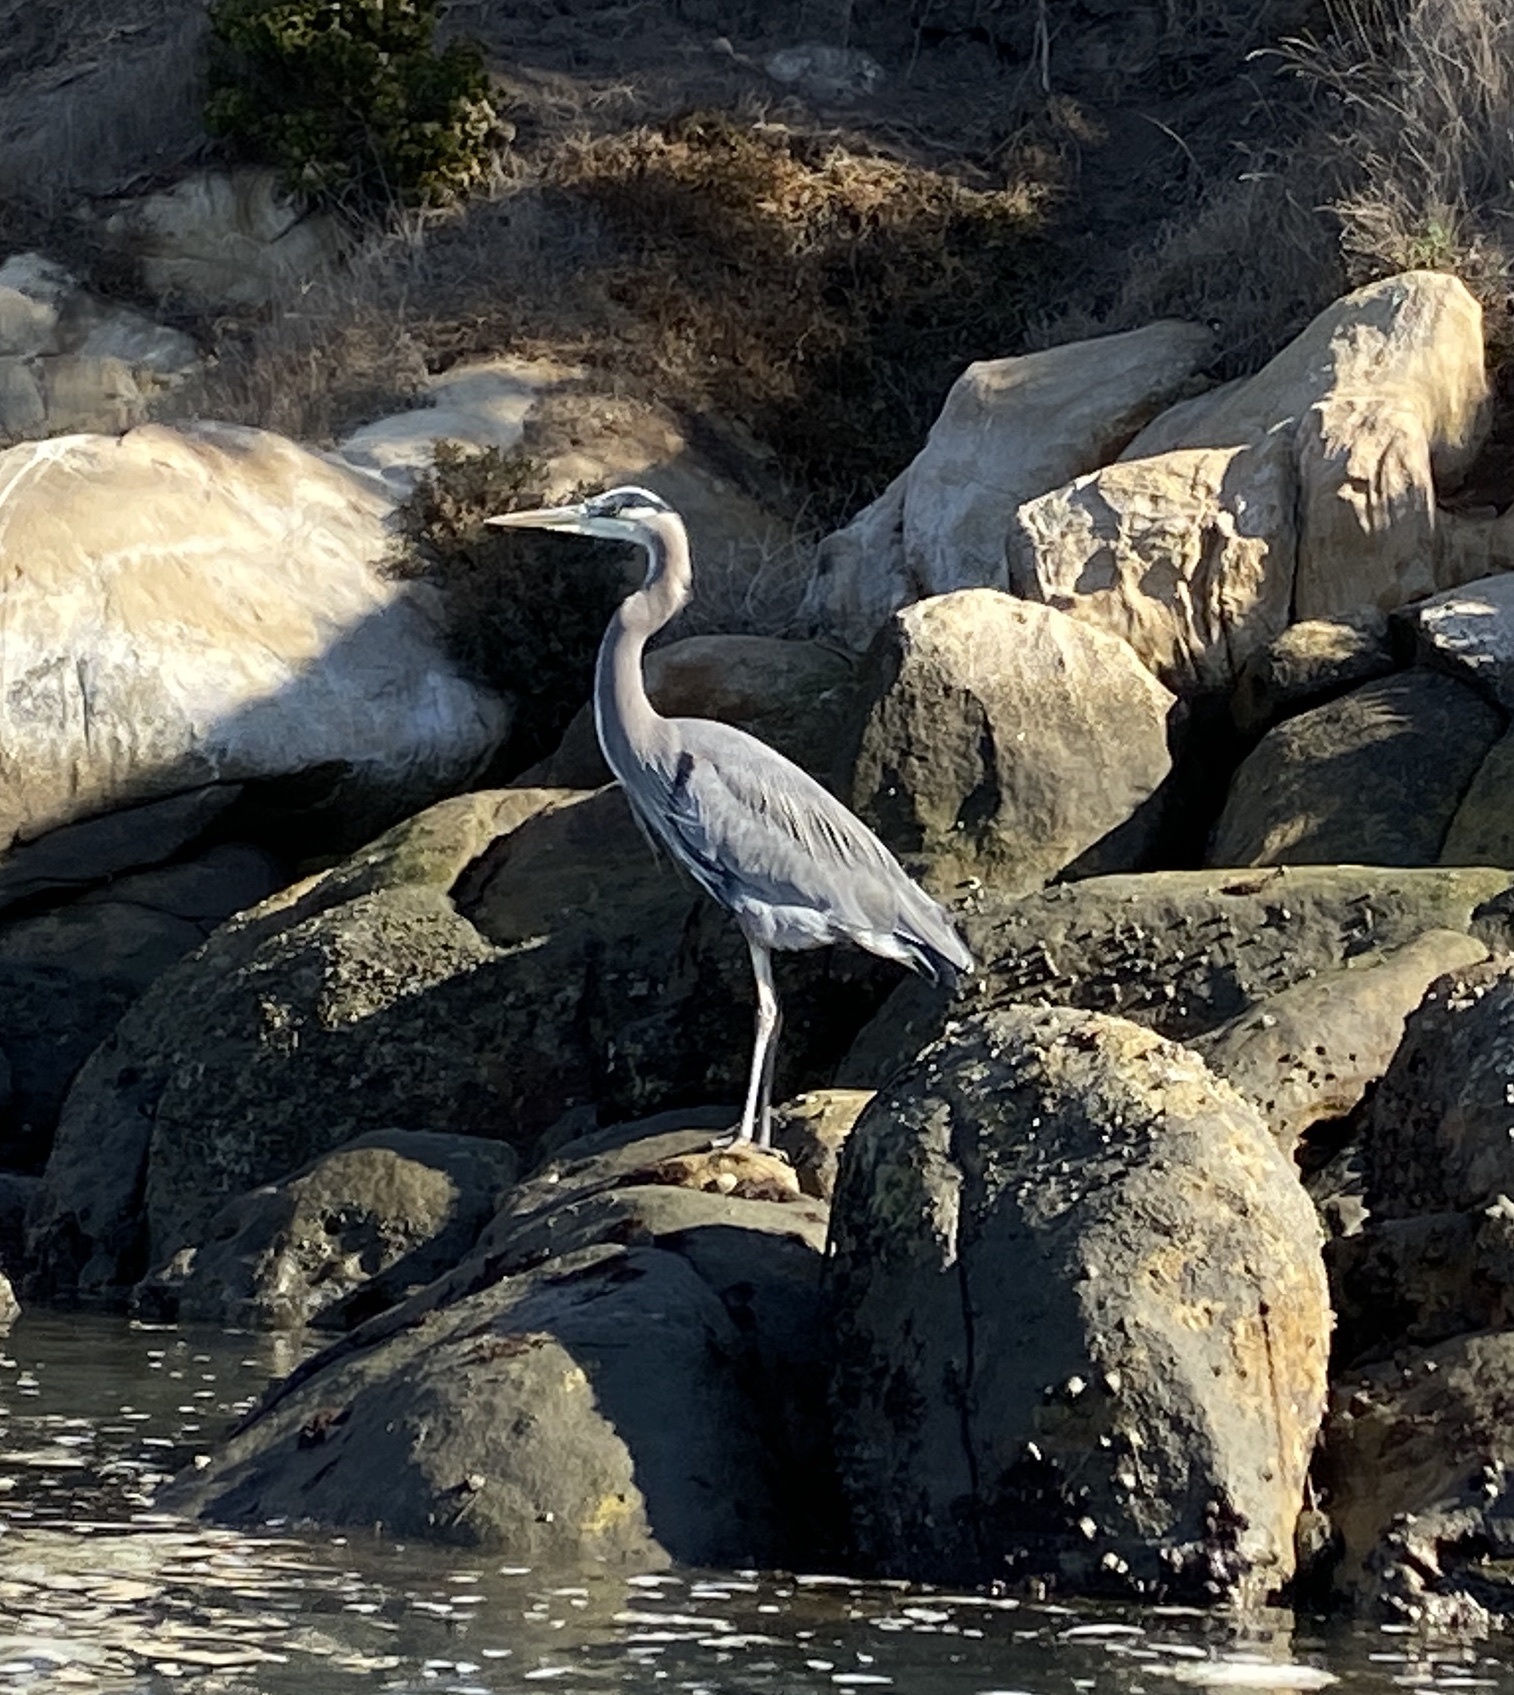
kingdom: Animalia
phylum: Chordata
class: Aves
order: Pelecaniformes
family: Ardeidae
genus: Ardea
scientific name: Ardea herodias
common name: Great blue heron
